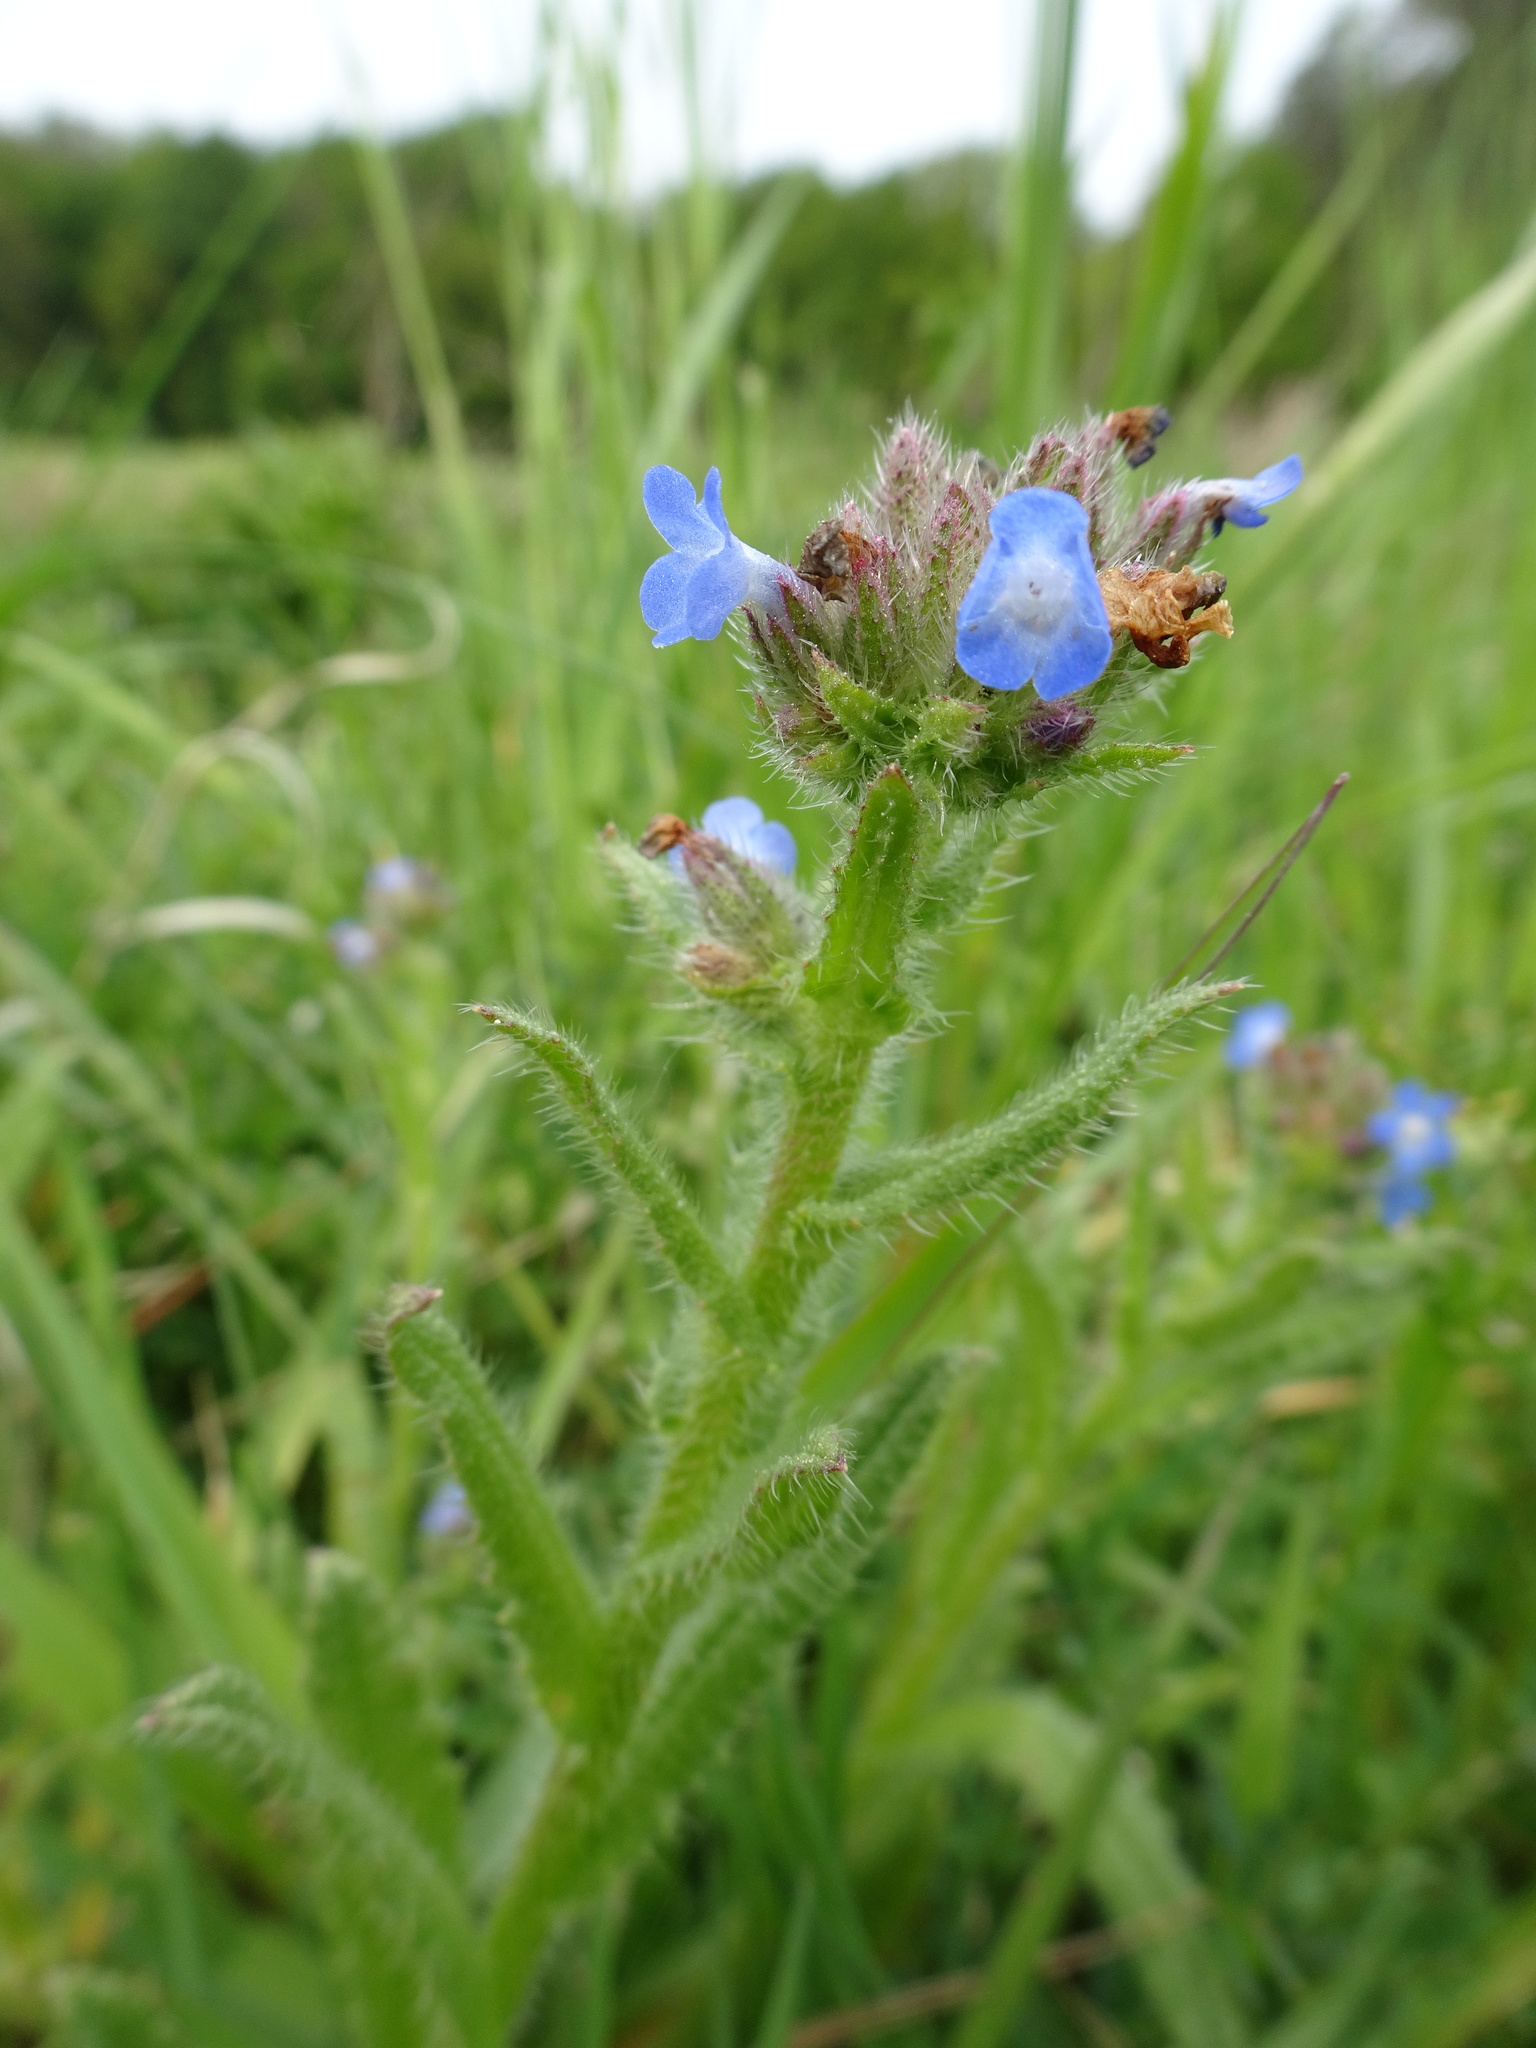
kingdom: Plantae
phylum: Tracheophyta
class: Magnoliopsida
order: Boraginales
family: Boraginaceae
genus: Lycopsis
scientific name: Lycopsis arvensis
